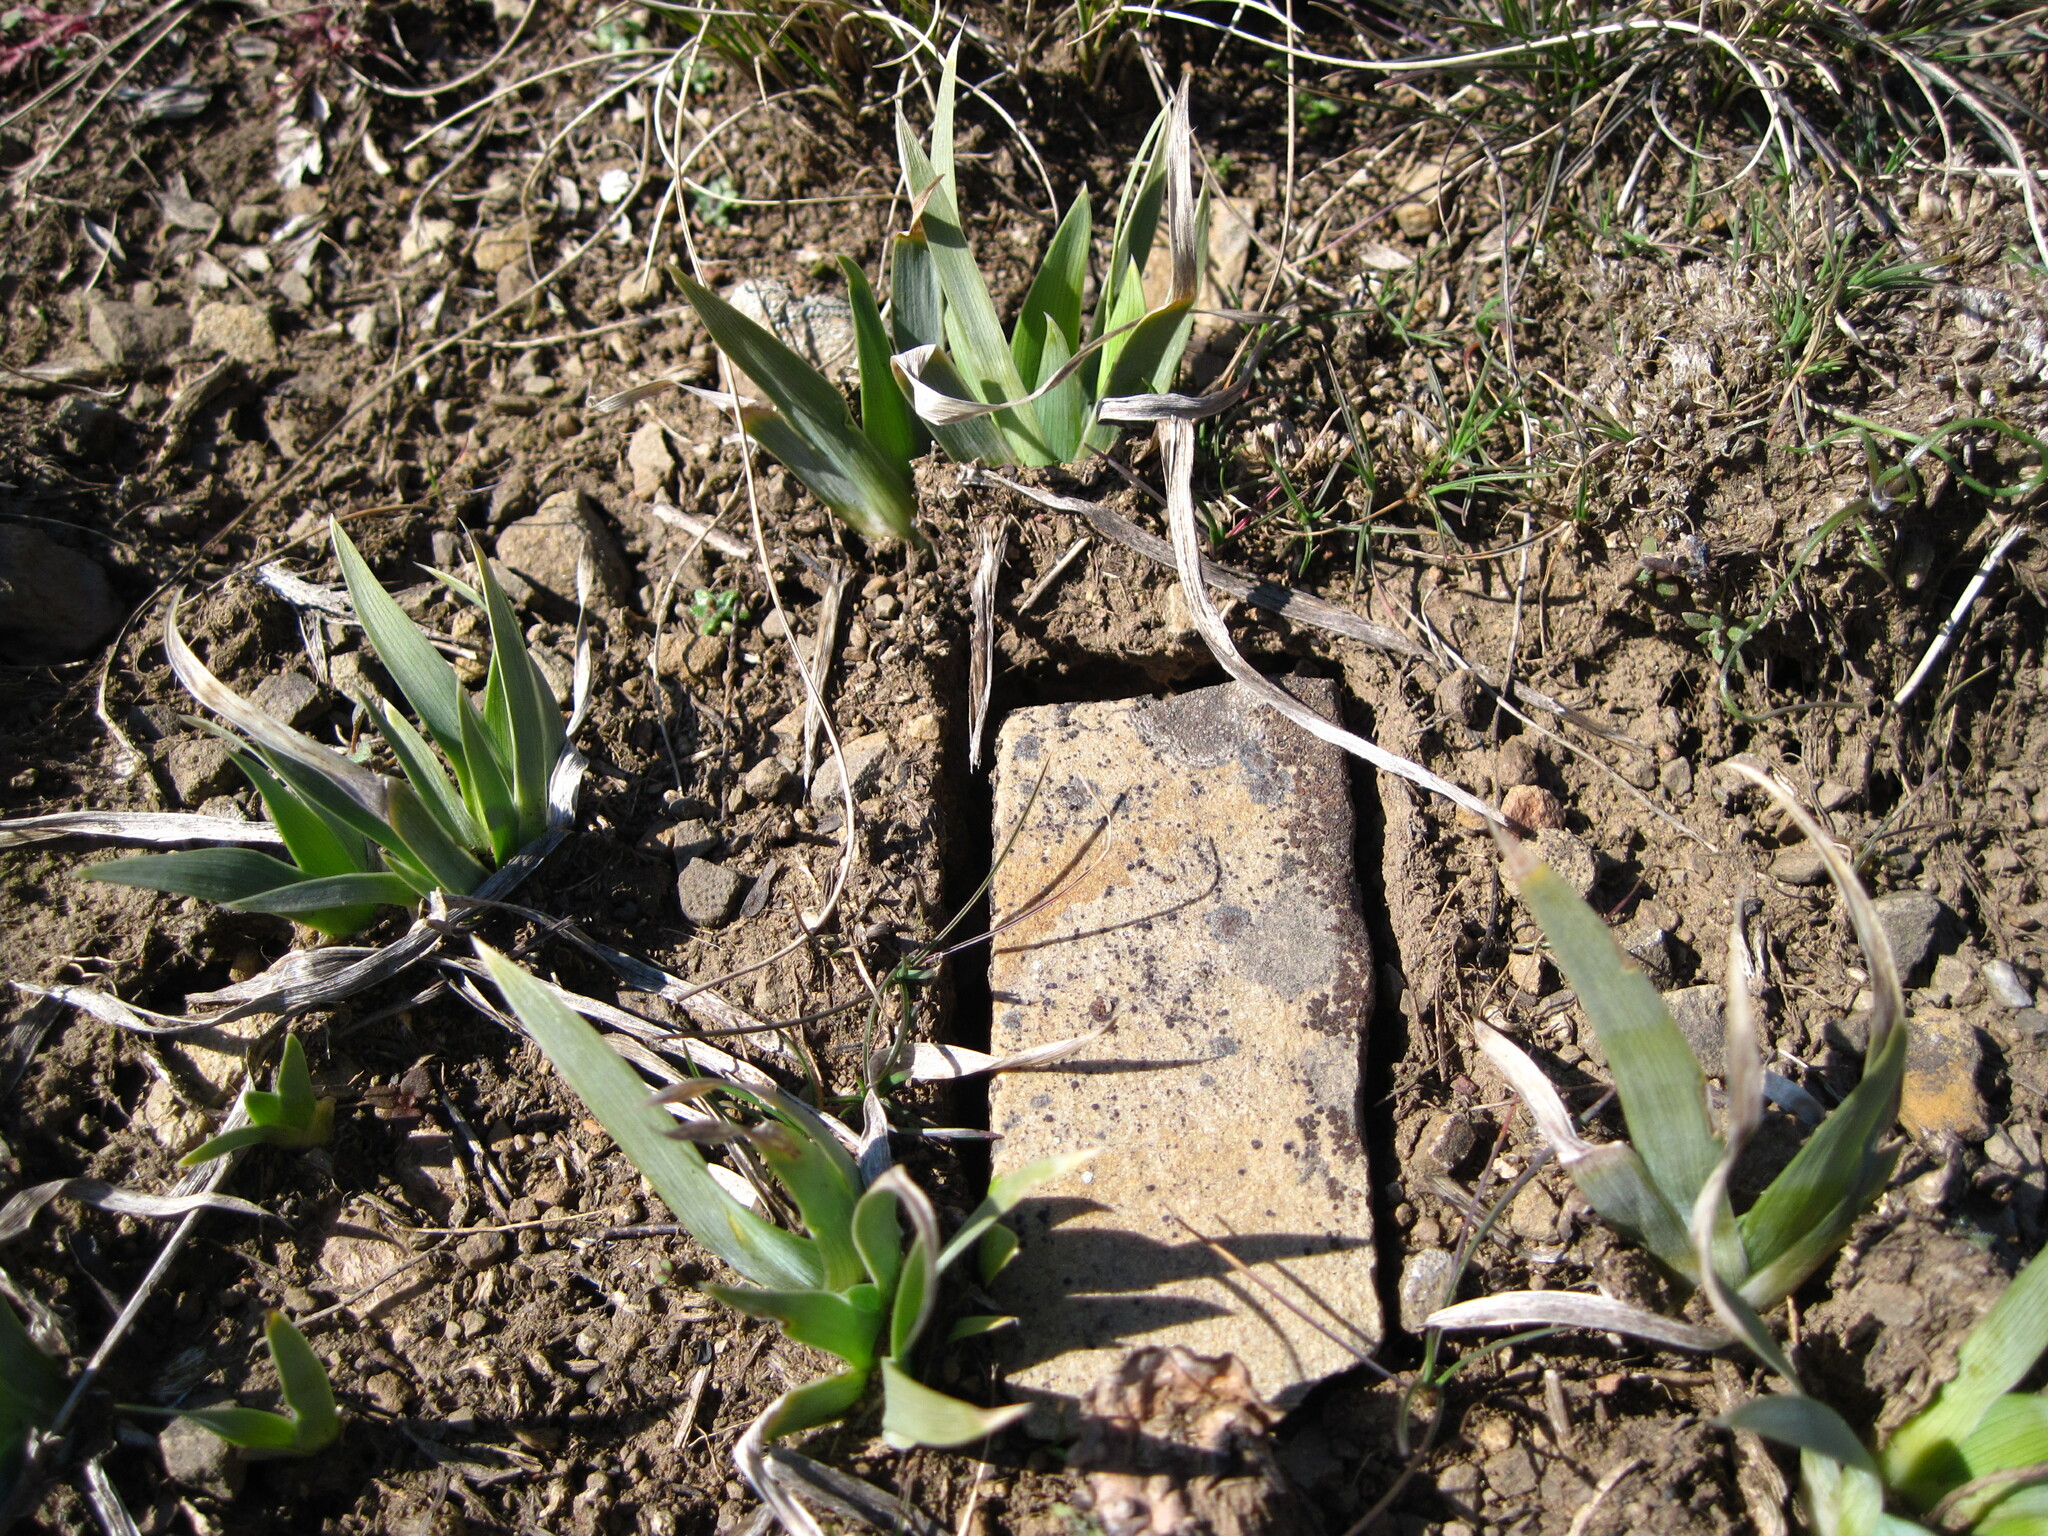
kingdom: Plantae
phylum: Tracheophyta
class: Liliopsida
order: Asparagales
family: Iridaceae
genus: Iris
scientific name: Iris pumila
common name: Dwarf iris
